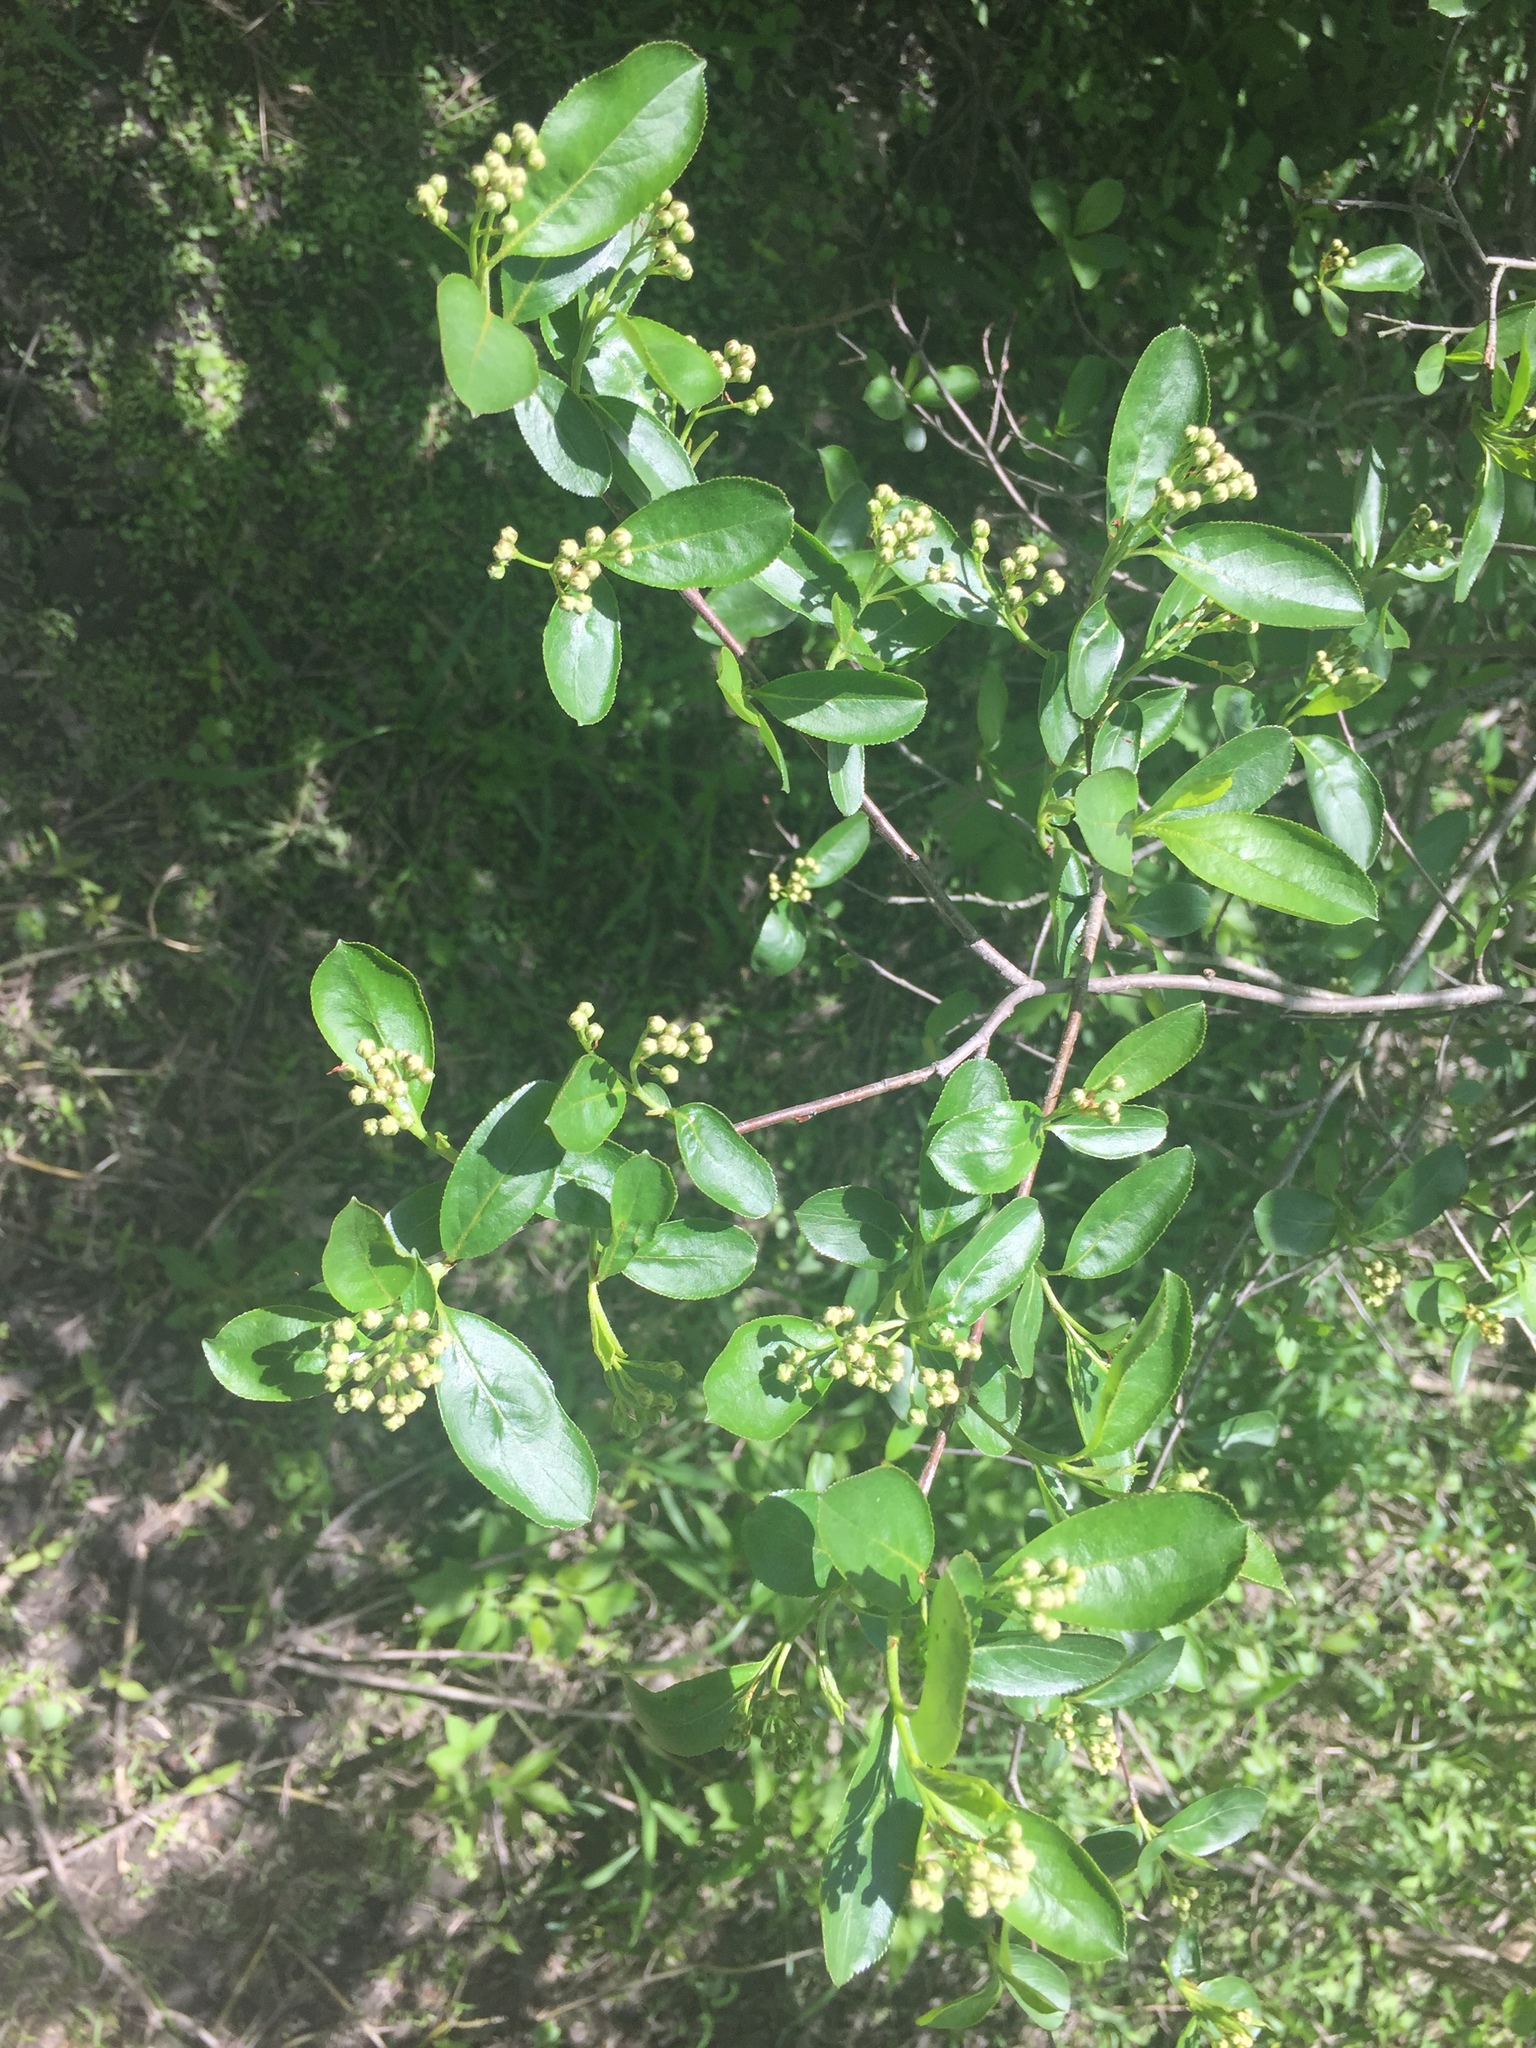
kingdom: Plantae
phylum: Tracheophyta
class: Magnoliopsida
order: Rosales
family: Rosaceae
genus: Aronia
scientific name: Aronia melanocarpa
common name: Black chokeberry
